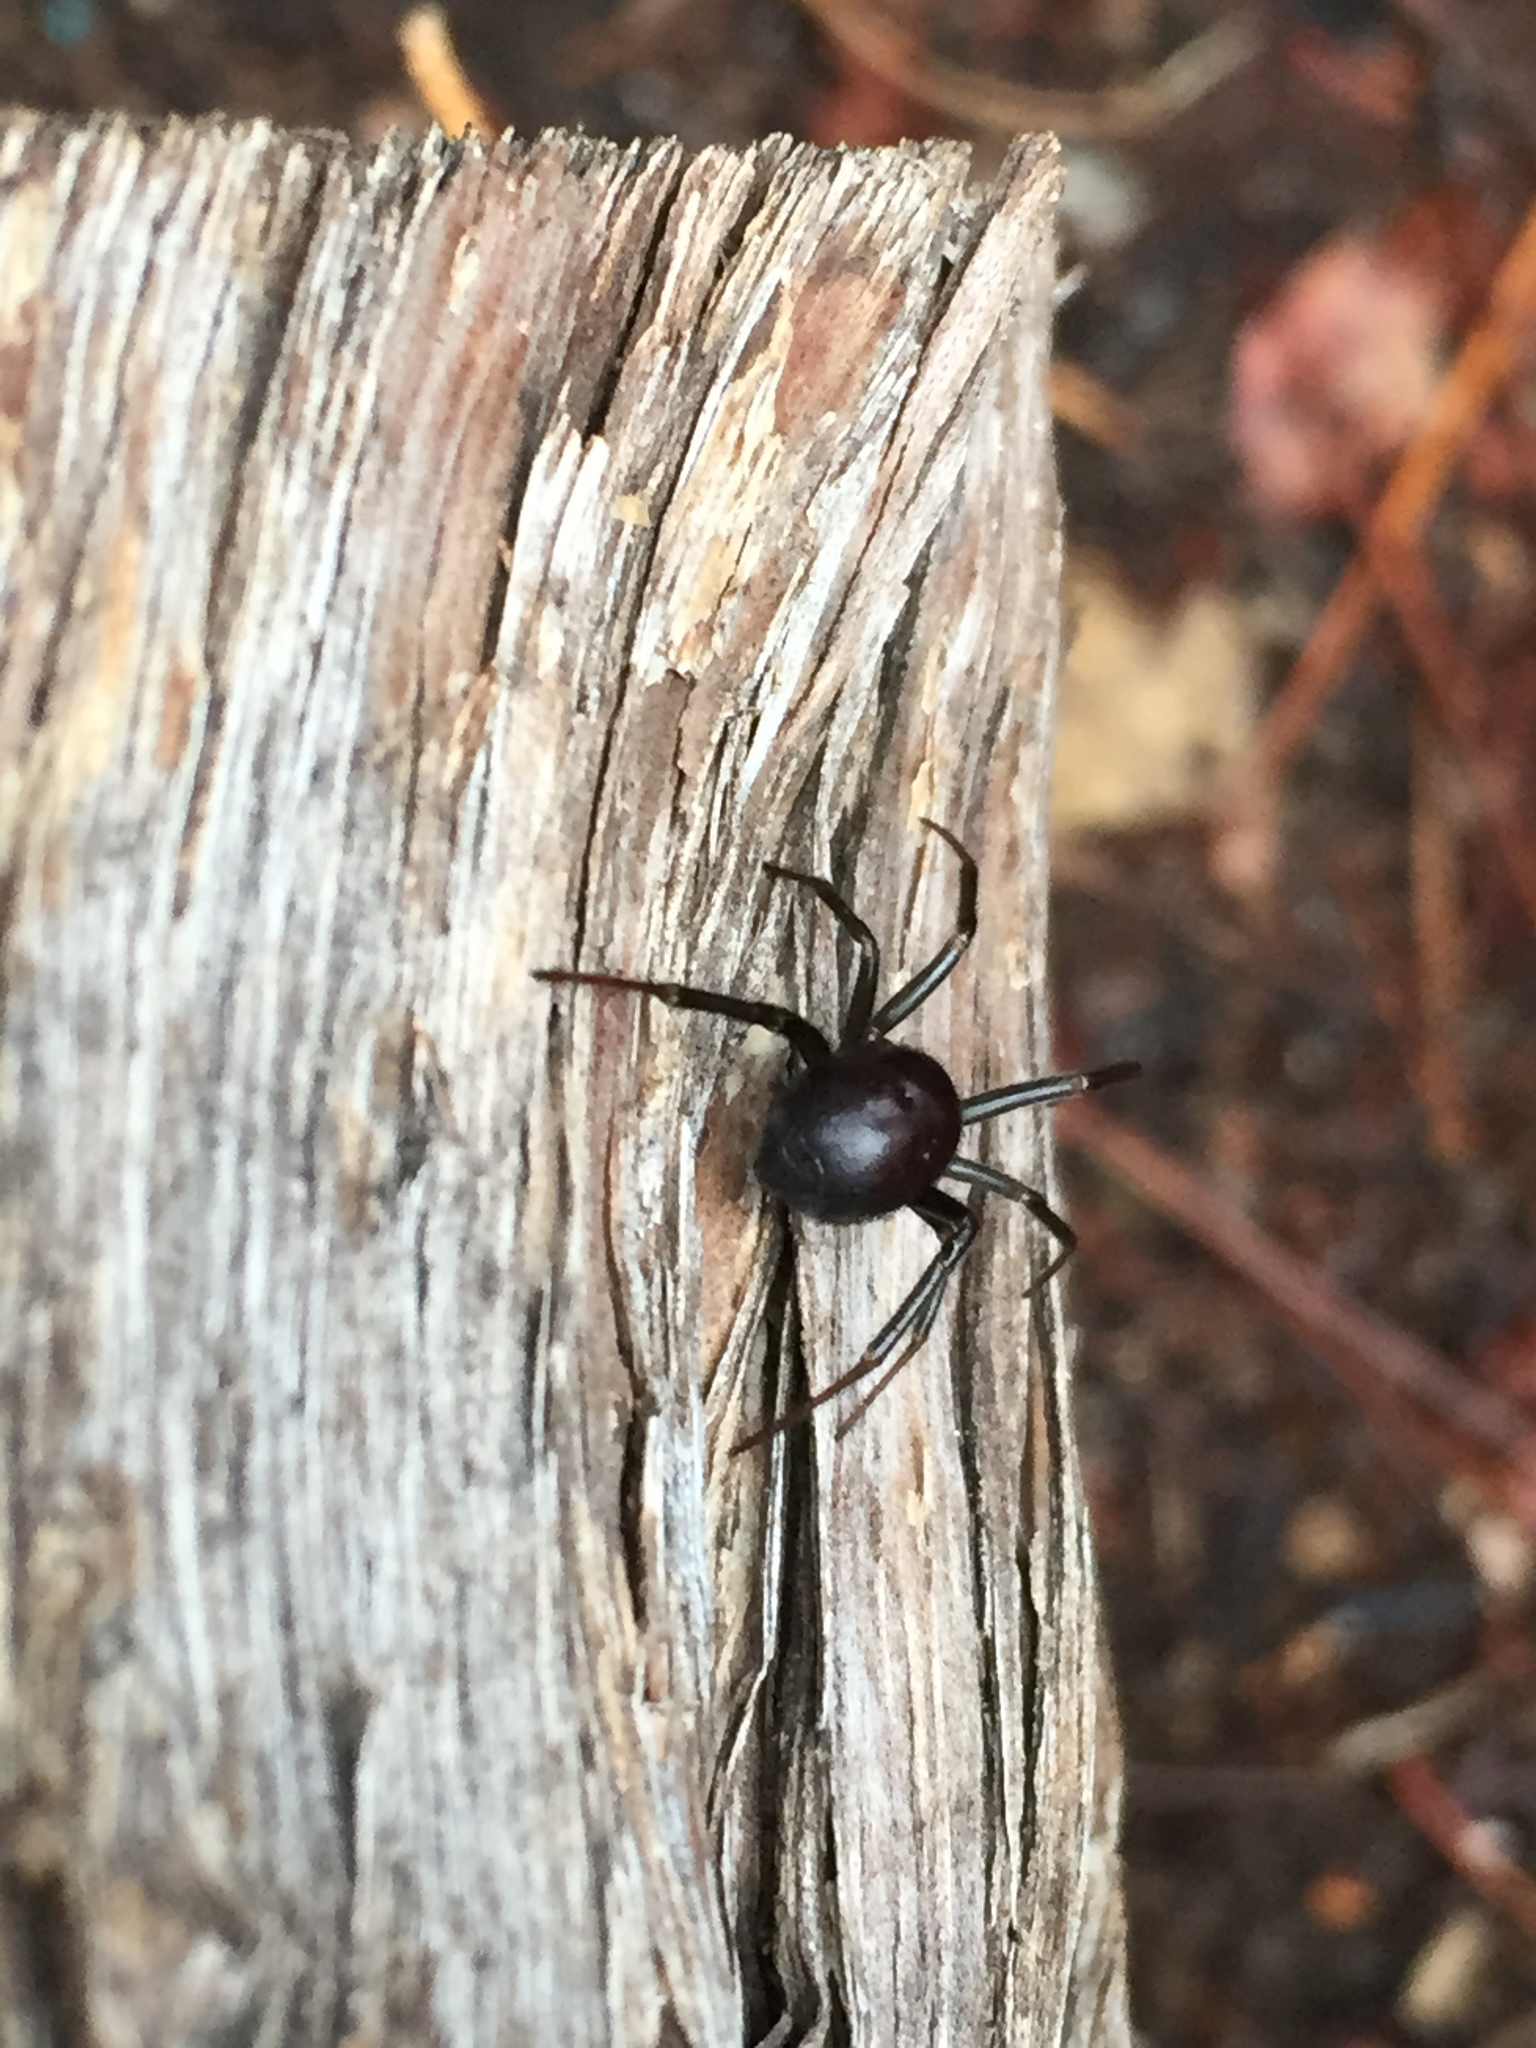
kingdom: Animalia
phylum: Arthropoda
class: Arachnida
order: Araneae
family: Theridiidae
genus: Latrodectus
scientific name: Latrodectus hesperus
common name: Western black widow
